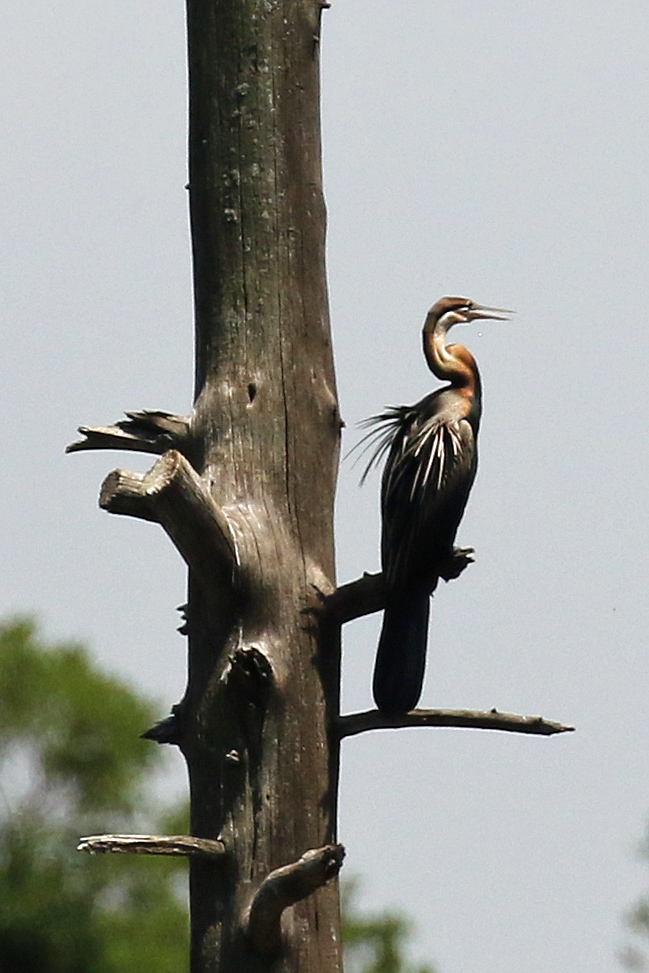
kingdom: Animalia
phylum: Chordata
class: Aves
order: Suliformes
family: Anhingidae
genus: Anhinga
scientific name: Anhinga rufa
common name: African darter
